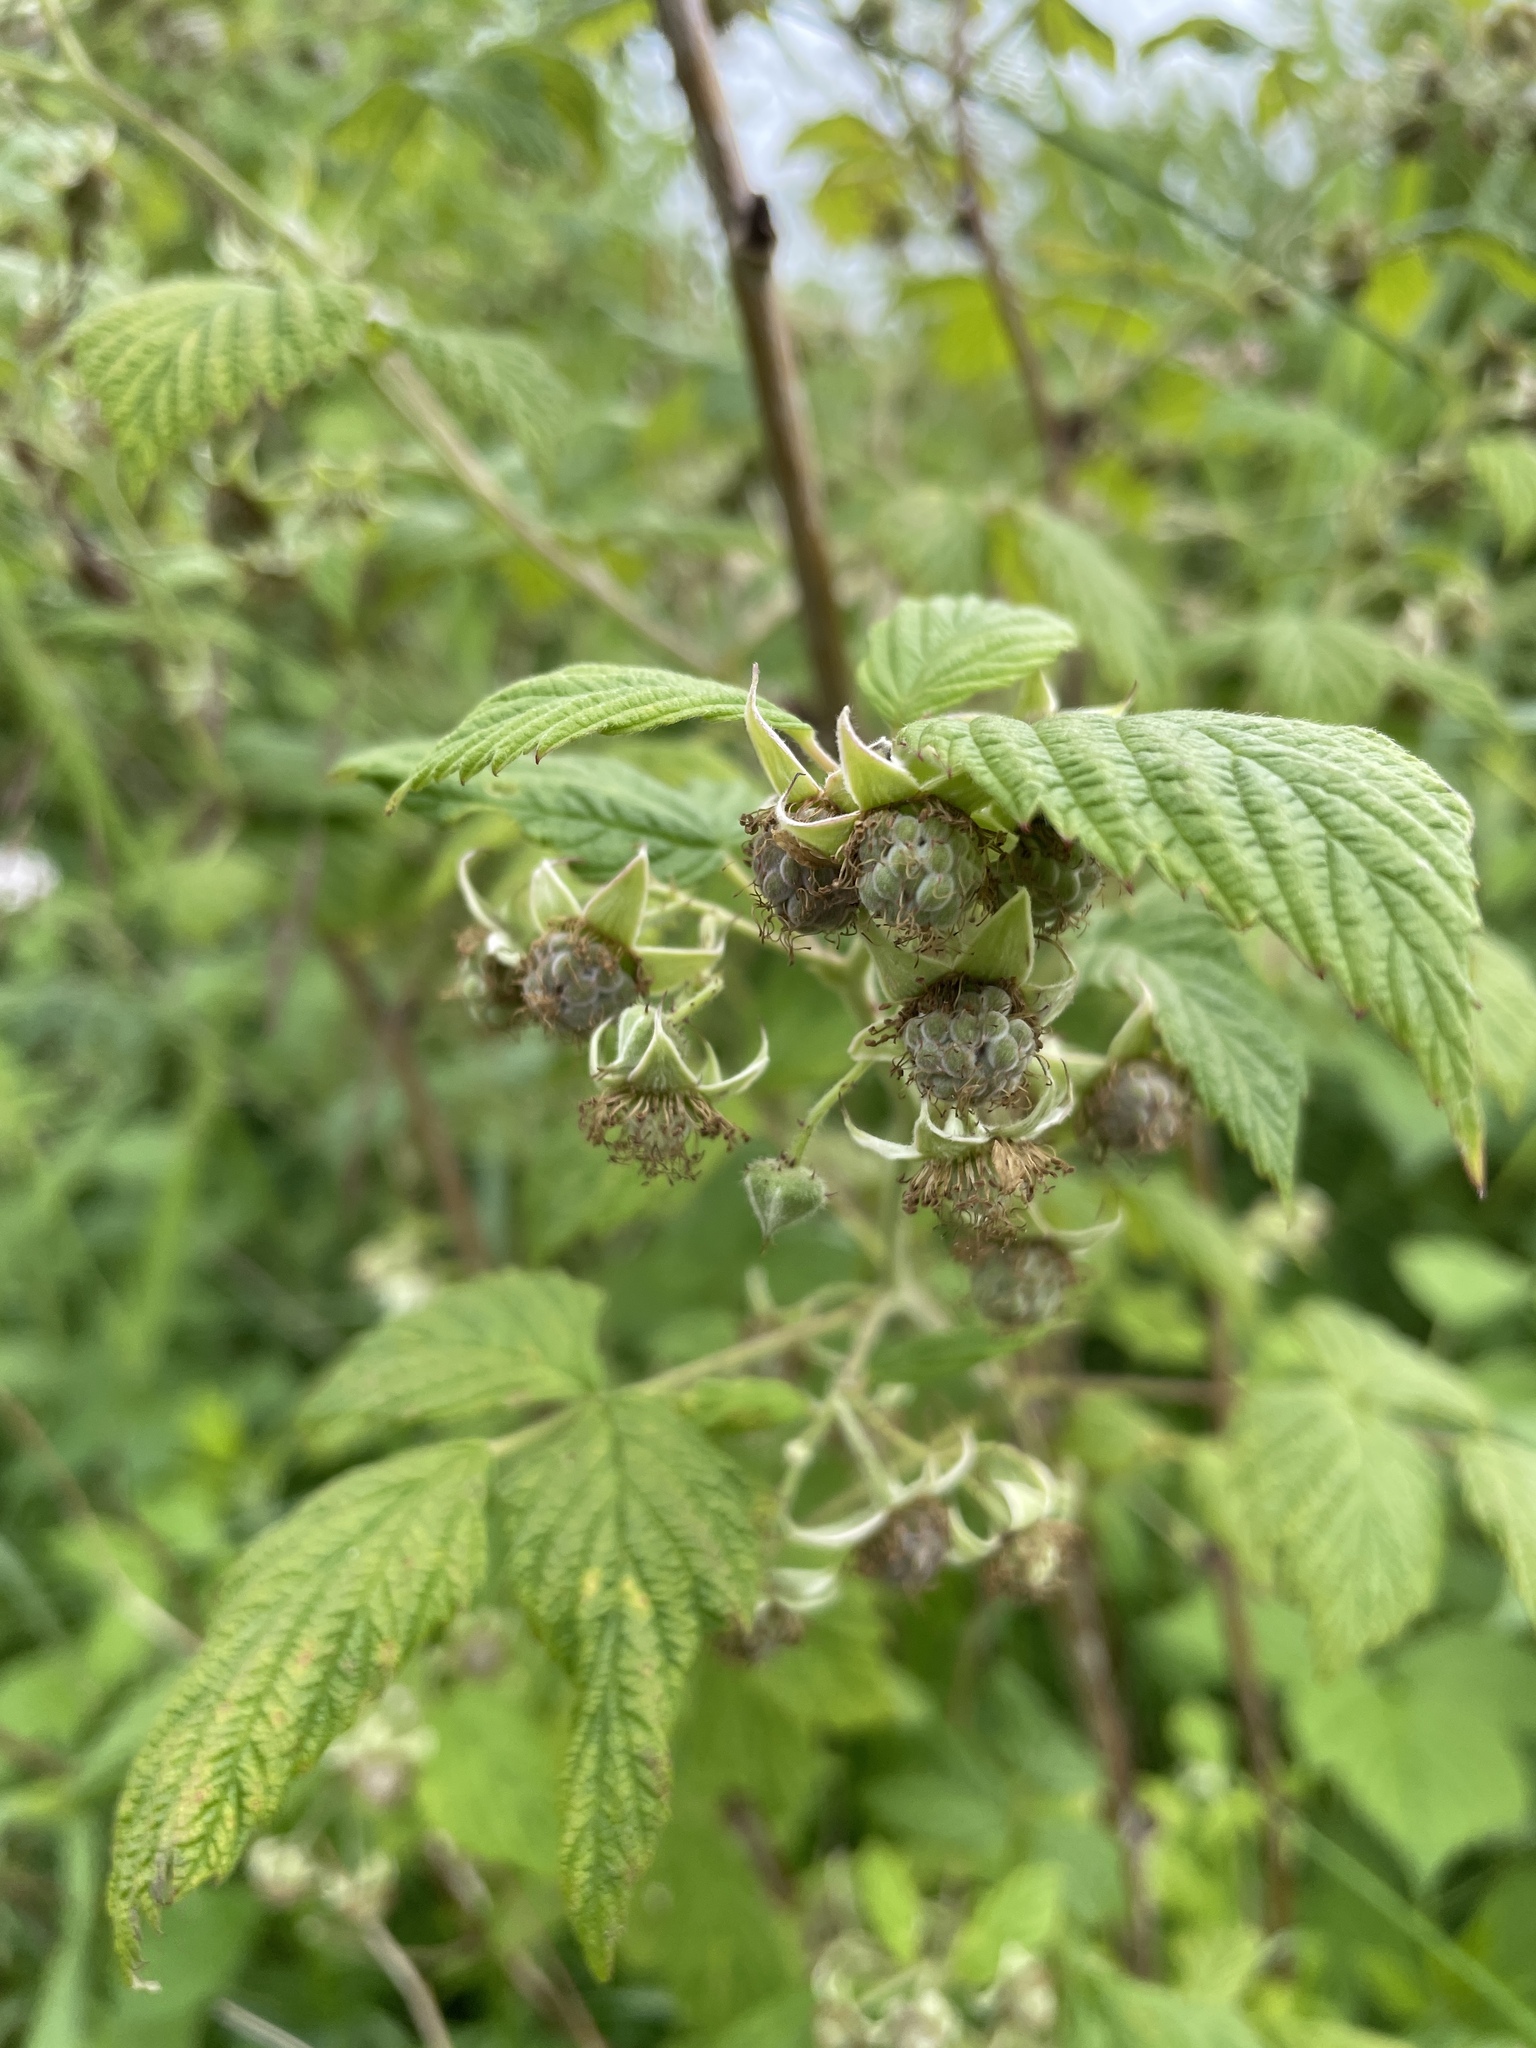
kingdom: Plantae
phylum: Tracheophyta
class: Magnoliopsida
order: Rosales
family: Rosaceae
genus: Rubus
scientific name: Rubus idaeus
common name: Raspberry
